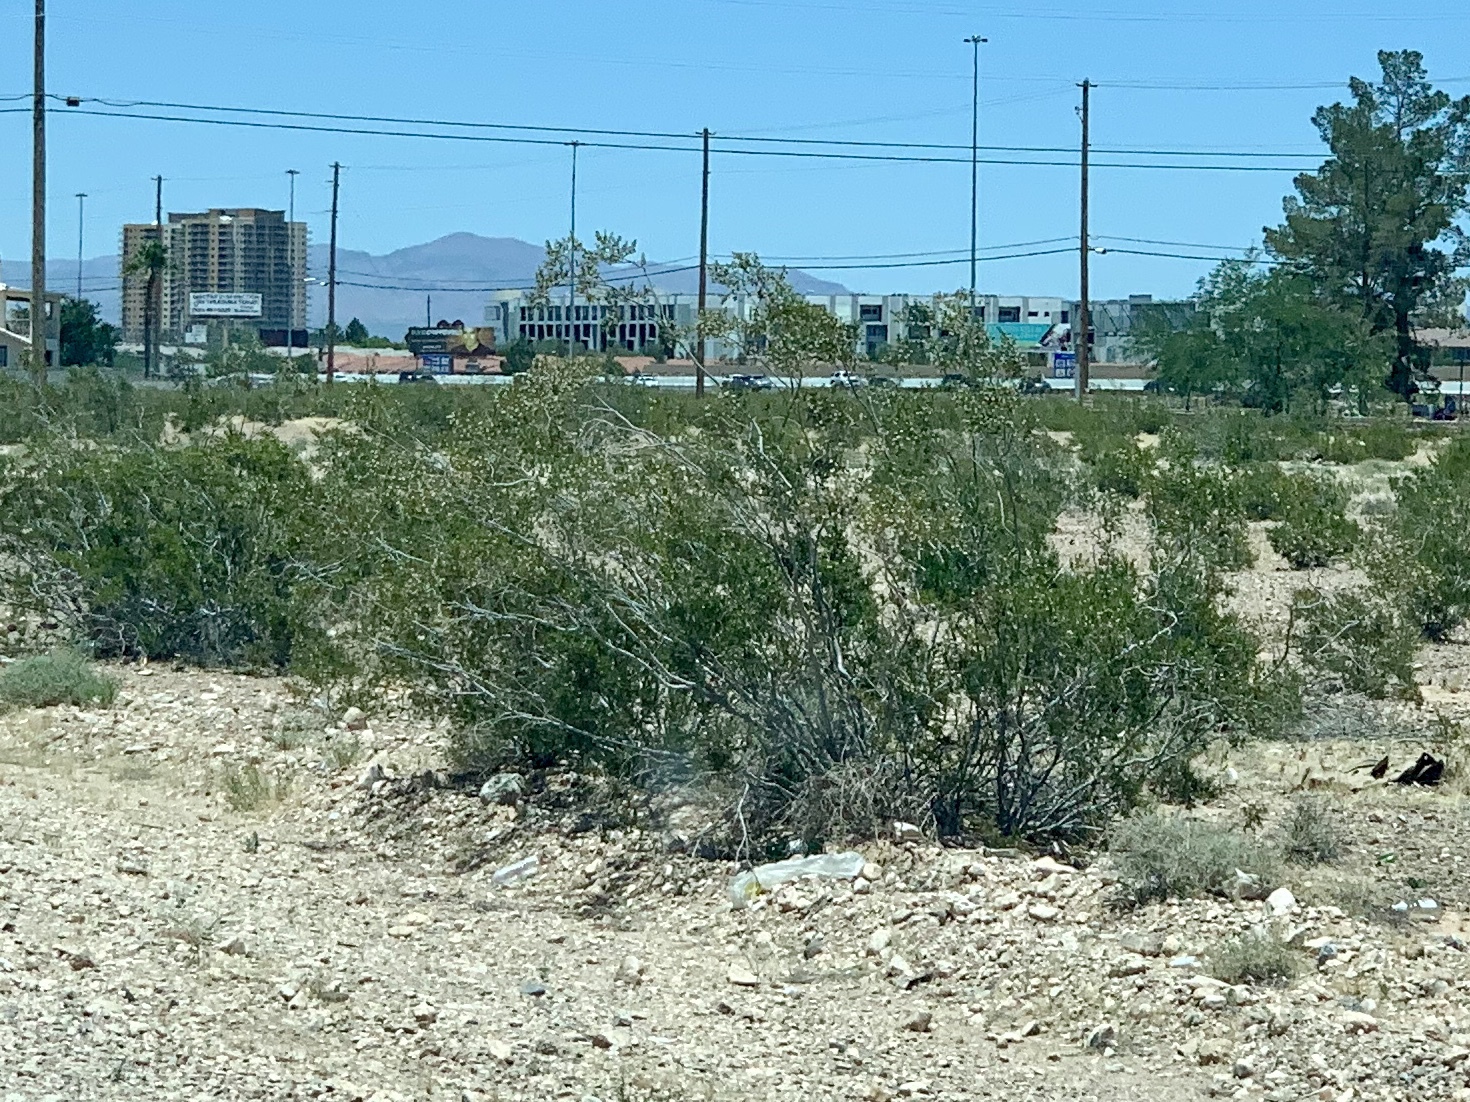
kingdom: Plantae
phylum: Tracheophyta
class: Magnoliopsida
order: Zygophyllales
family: Zygophyllaceae
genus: Larrea
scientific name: Larrea tridentata
